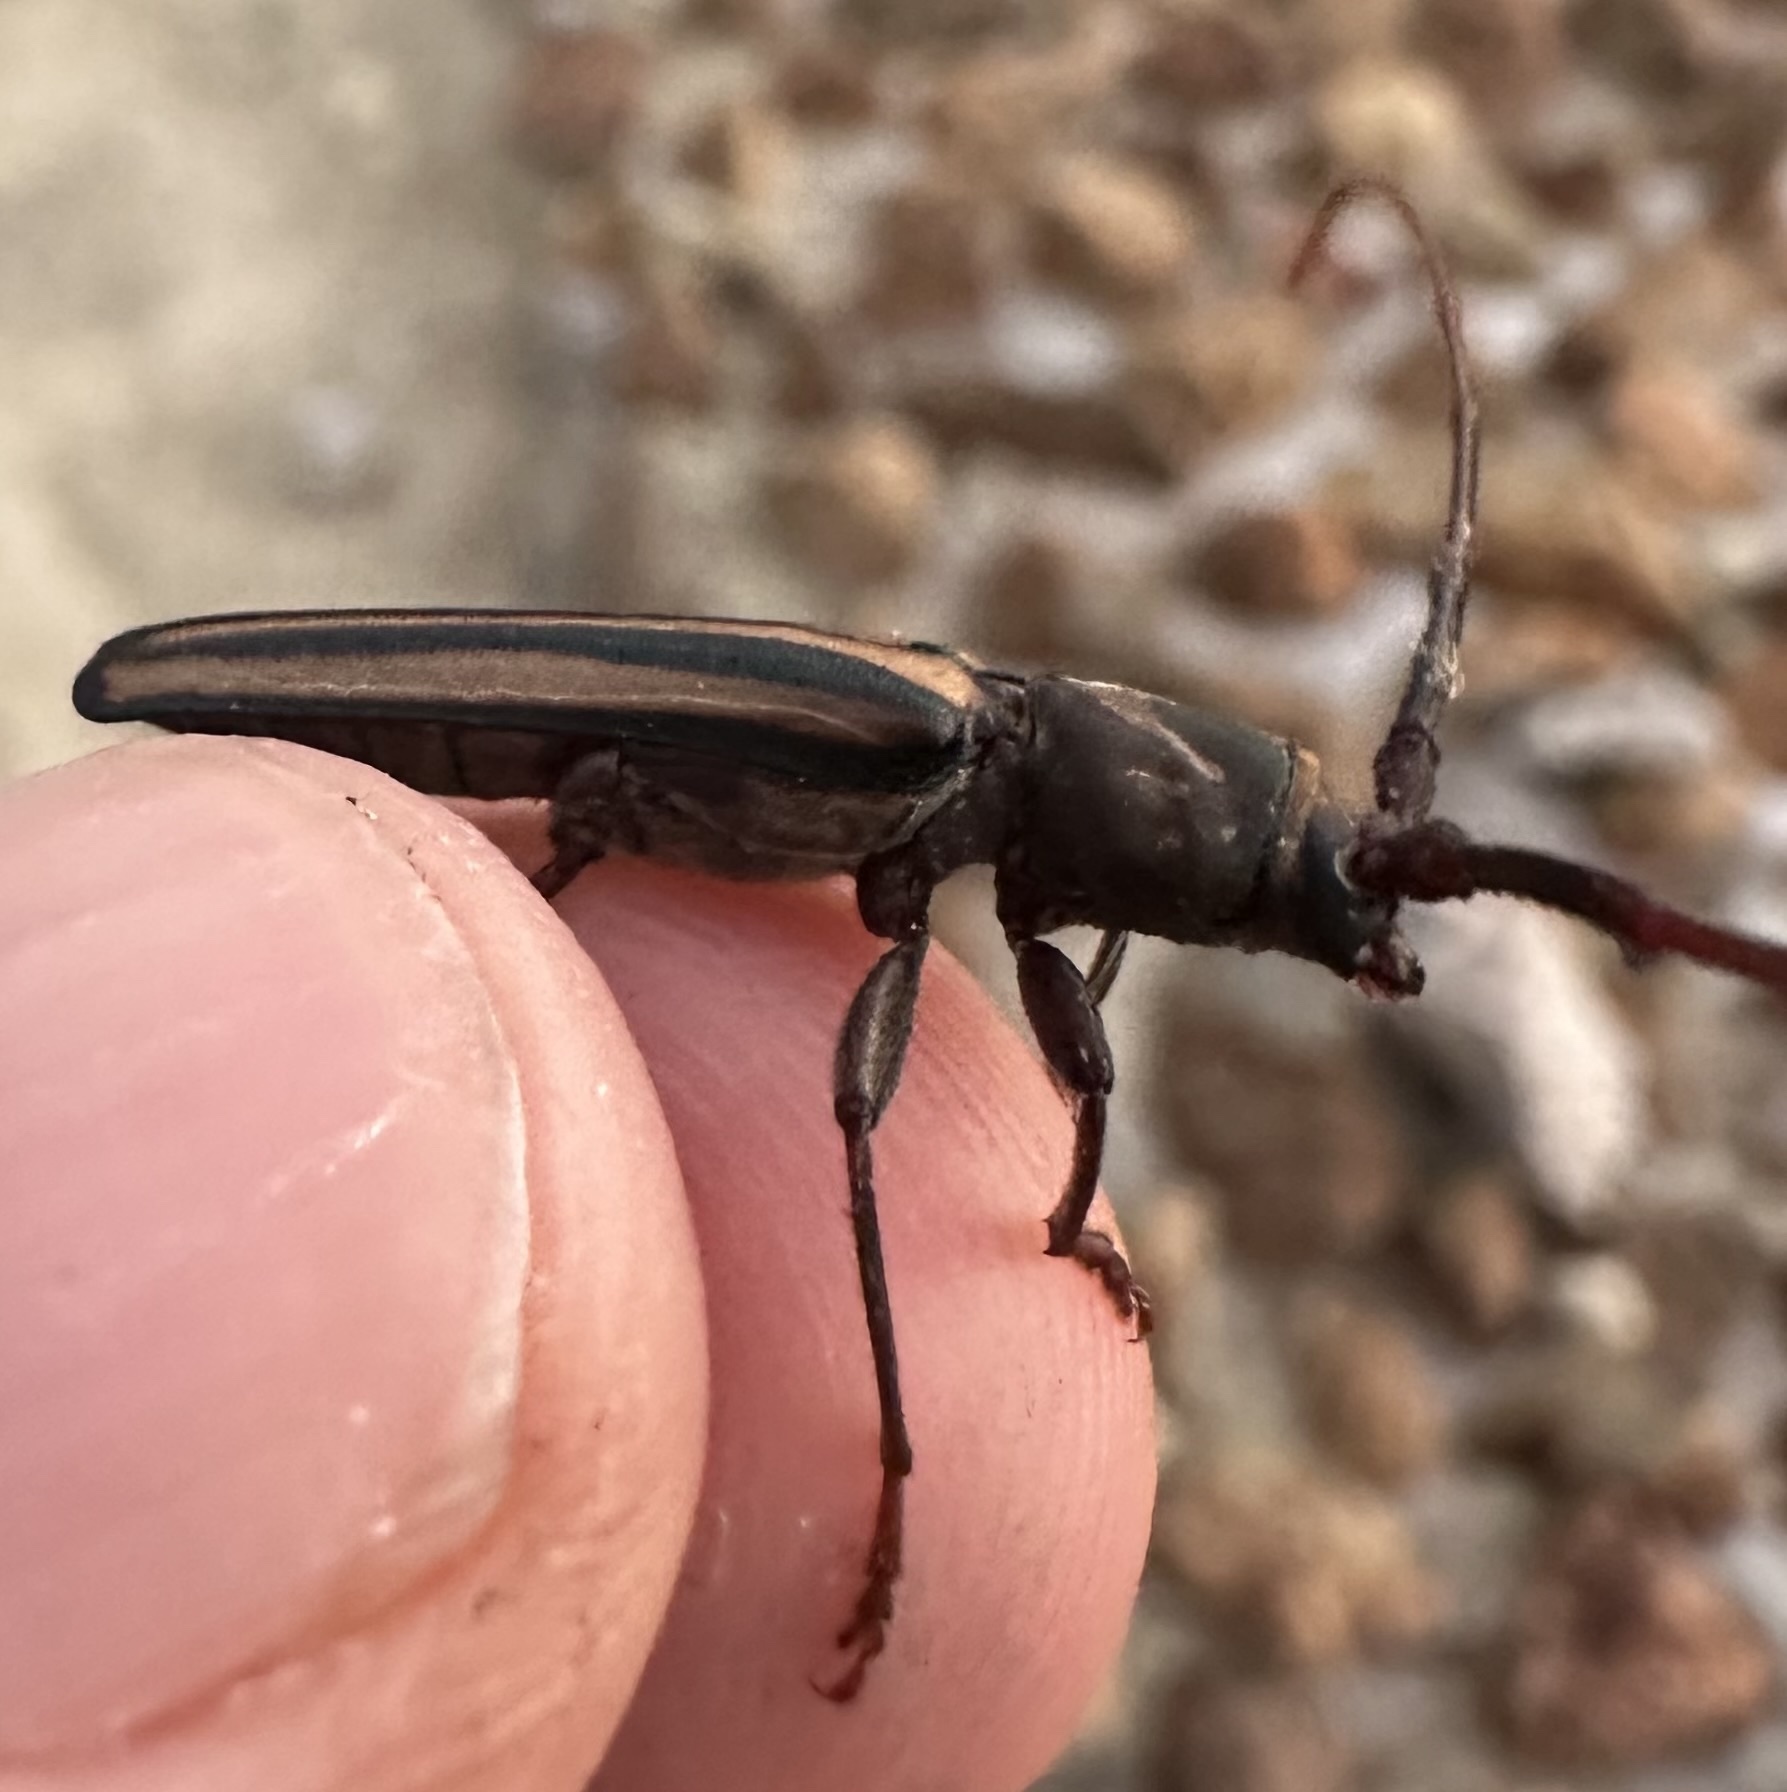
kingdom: Animalia
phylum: Arthropoda
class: Insecta
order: Coleoptera
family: Cerambycidae
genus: Xystrocera
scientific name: Xystrocera dispar
